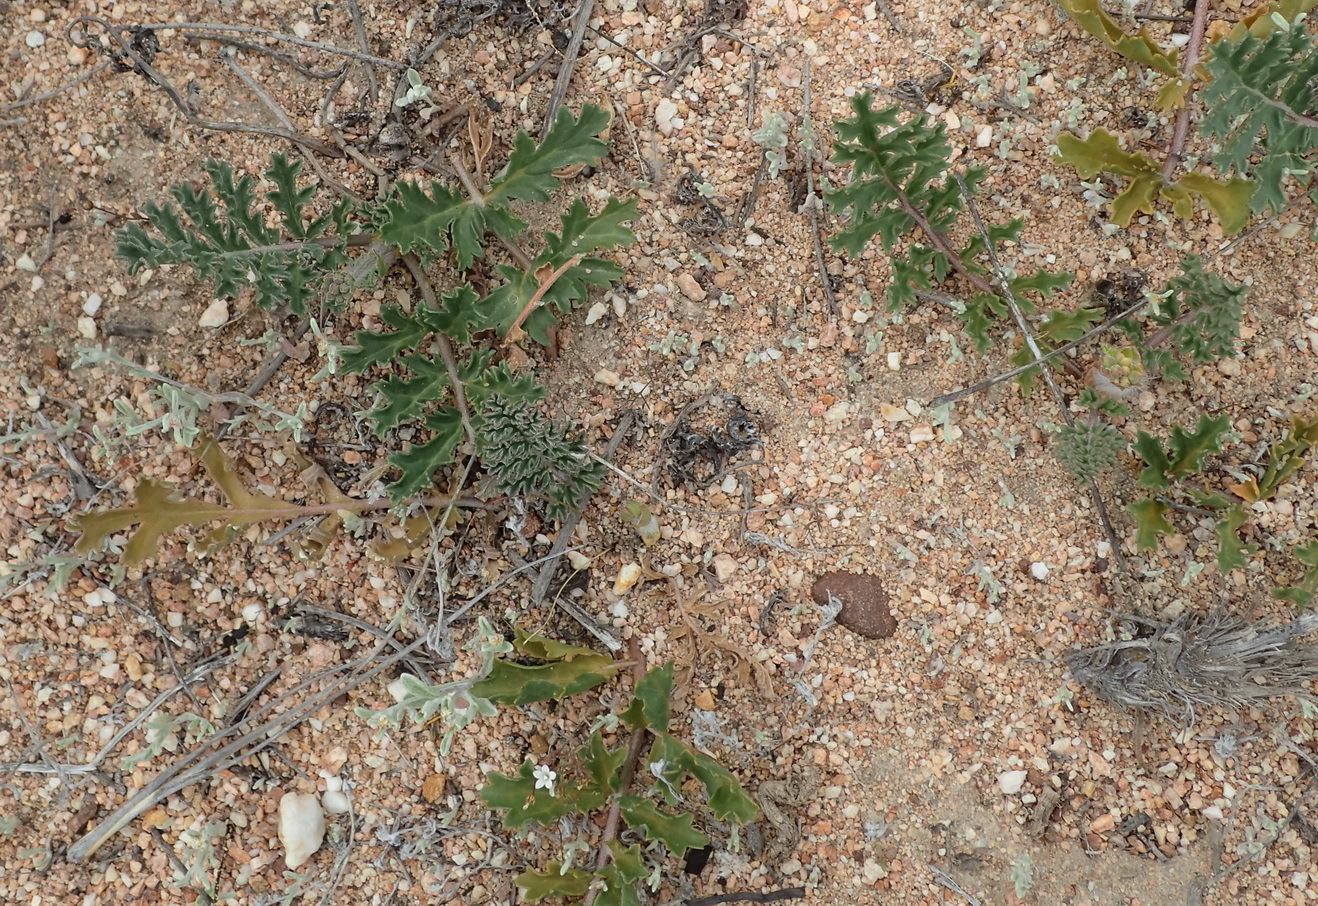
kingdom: Plantae
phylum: Tracheophyta
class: Magnoliopsida
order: Geraniales
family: Geraniaceae
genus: Pelargonium
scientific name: Pelargonium radulifolium
